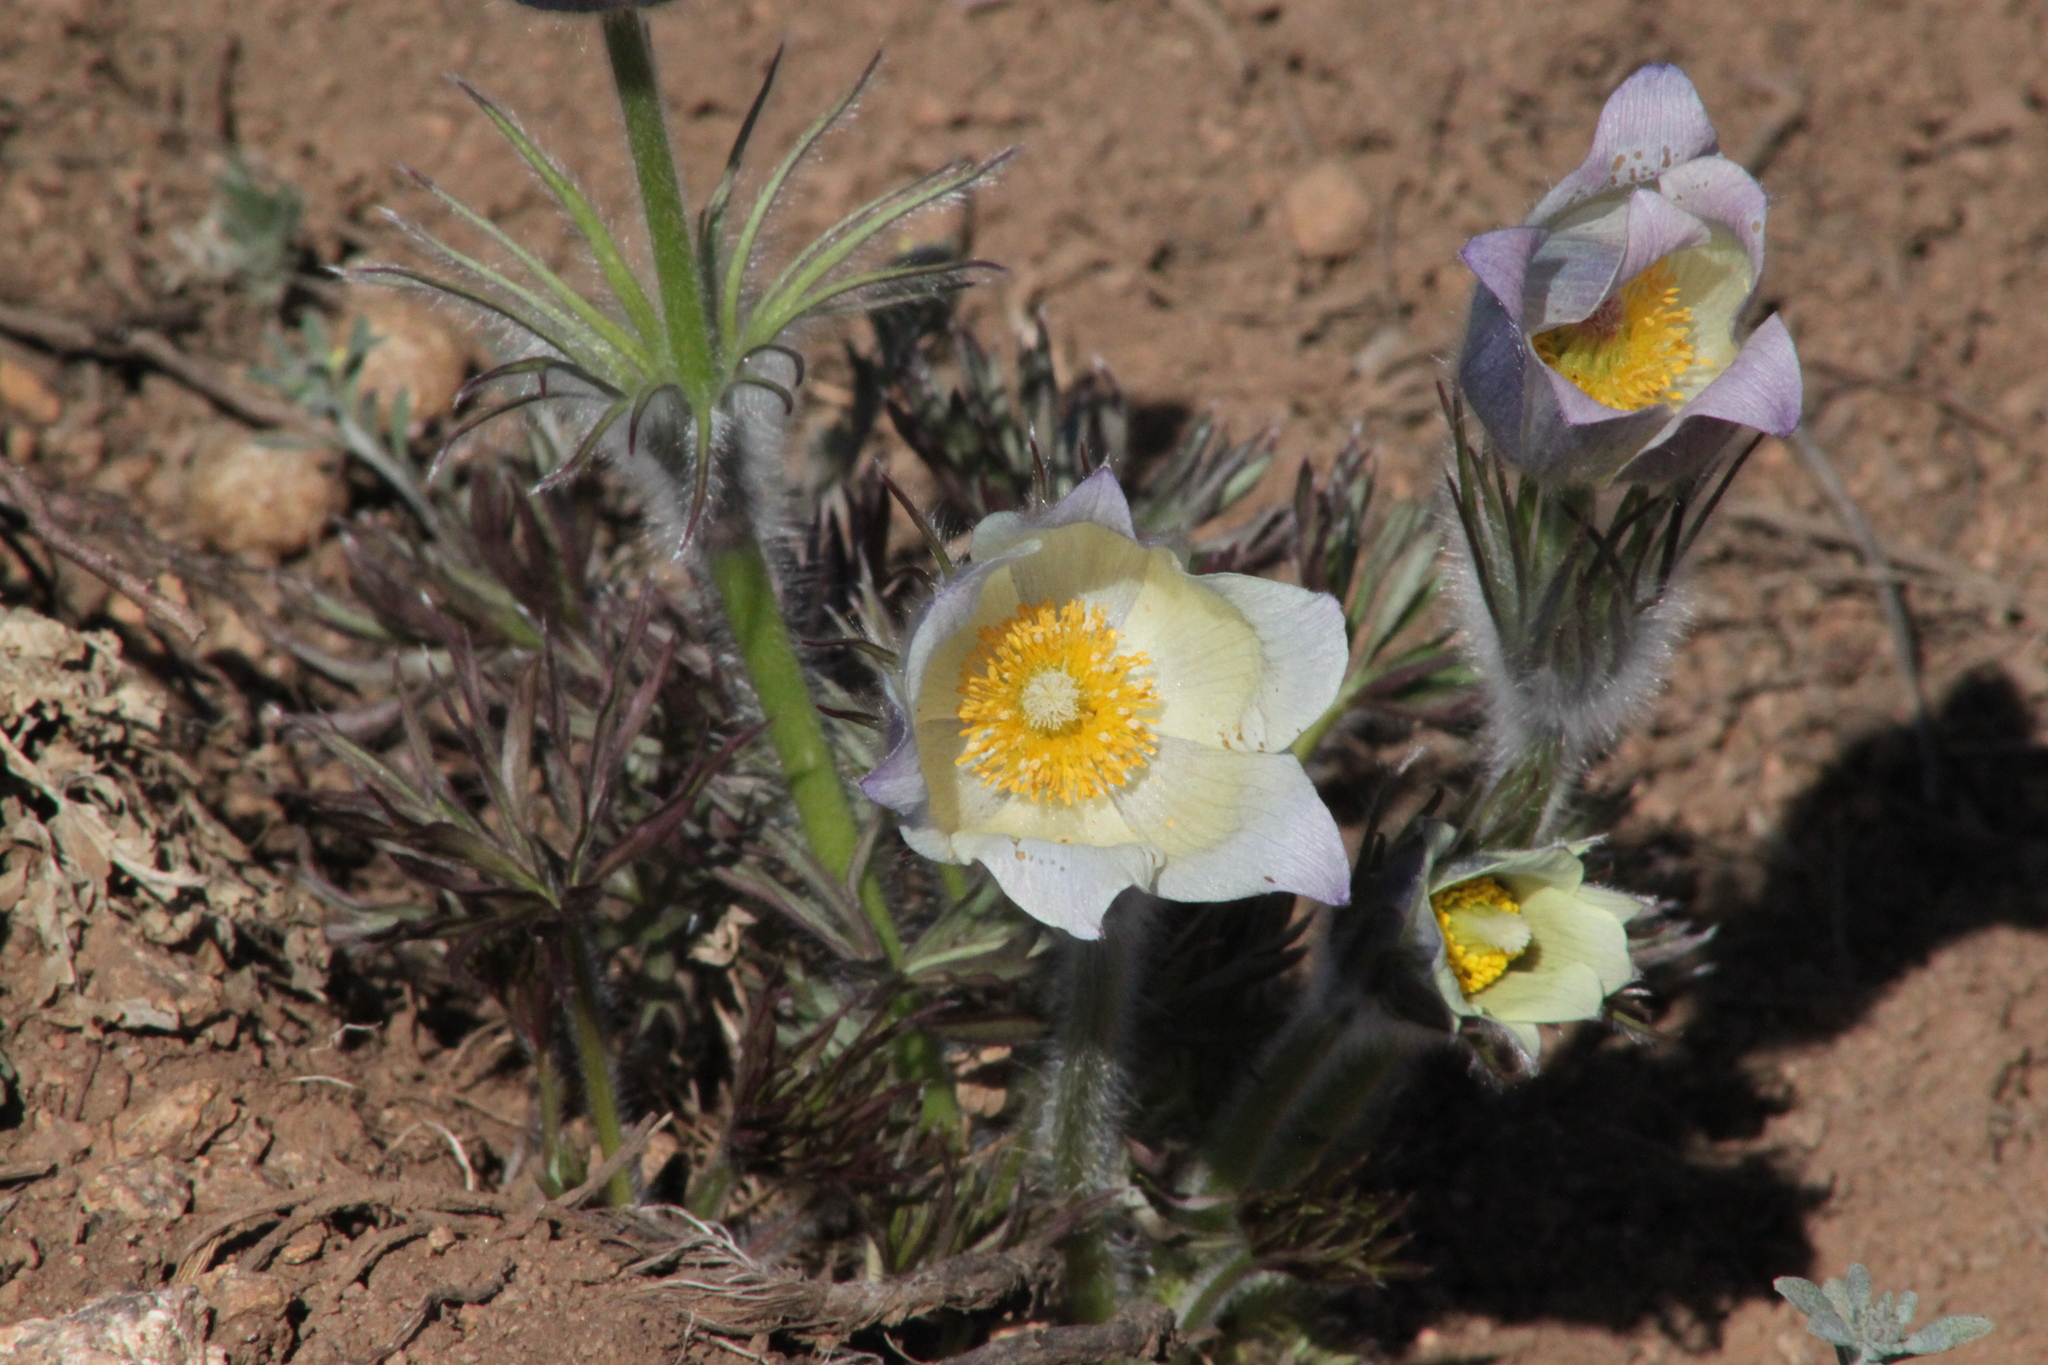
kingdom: Plantae
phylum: Tracheophyta
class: Magnoliopsida
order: Ranunculales
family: Ranunculaceae
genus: Pulsatilla
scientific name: Pulsatilla patens
